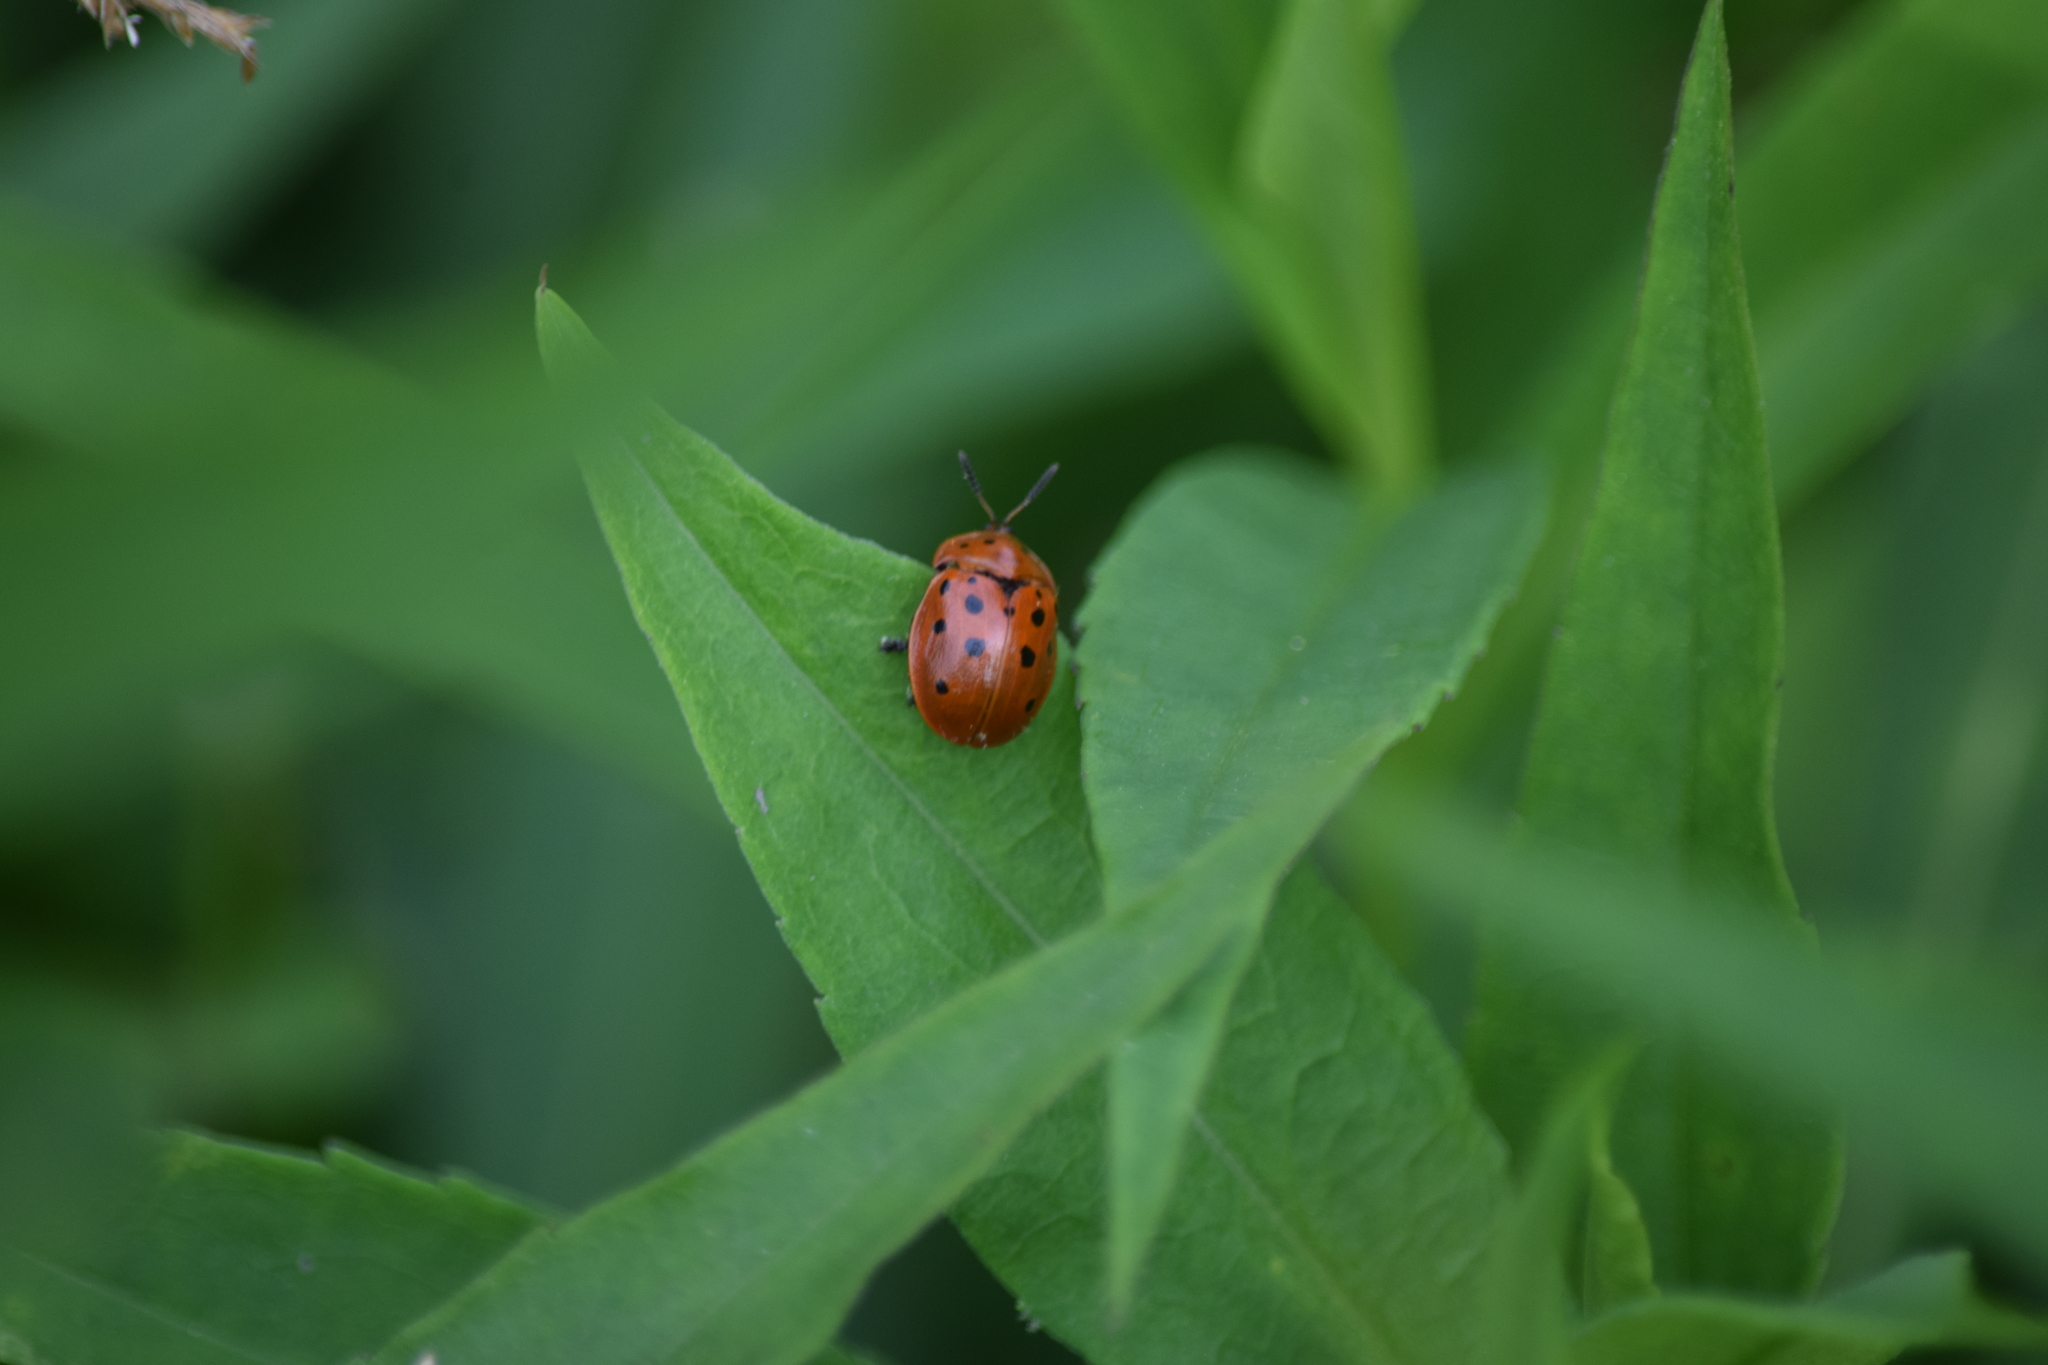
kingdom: Animalia
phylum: Arthropoda
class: Insecta
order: Coleoptera
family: Chrysomelidae
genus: Chelymorpha
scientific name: Chelymorpha cassidea
